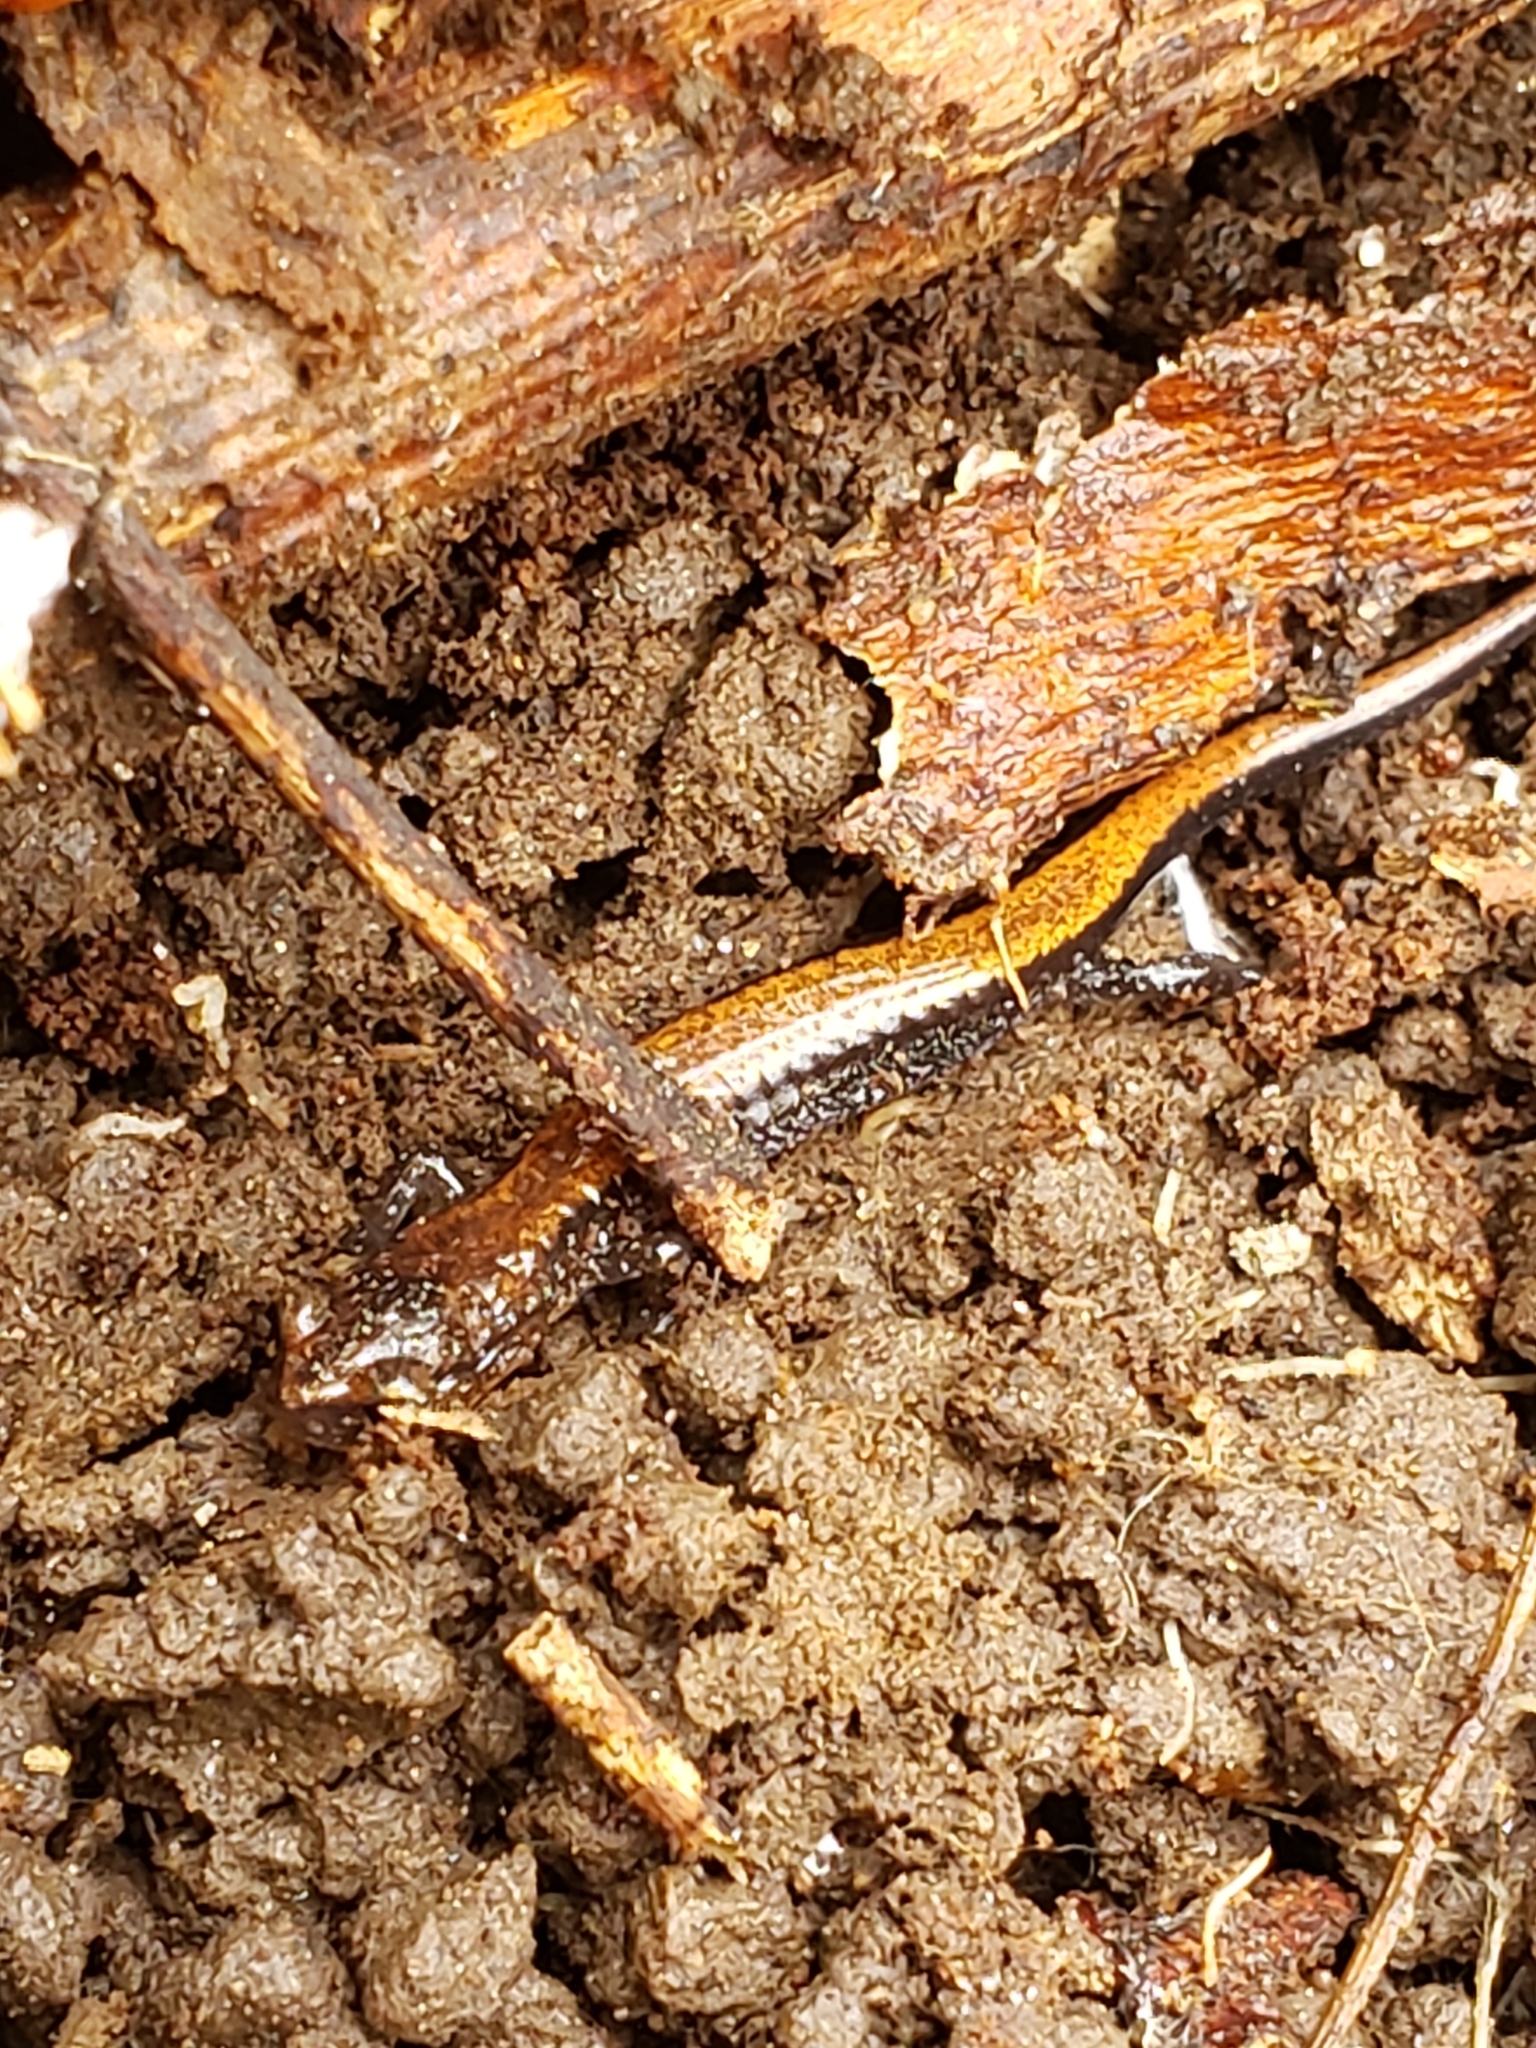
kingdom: Animalia
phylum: Chordata
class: Amphibia
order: Caudata
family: Plethodontidae
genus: Plethodon
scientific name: Plethodon cinereus
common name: Redback salamander
